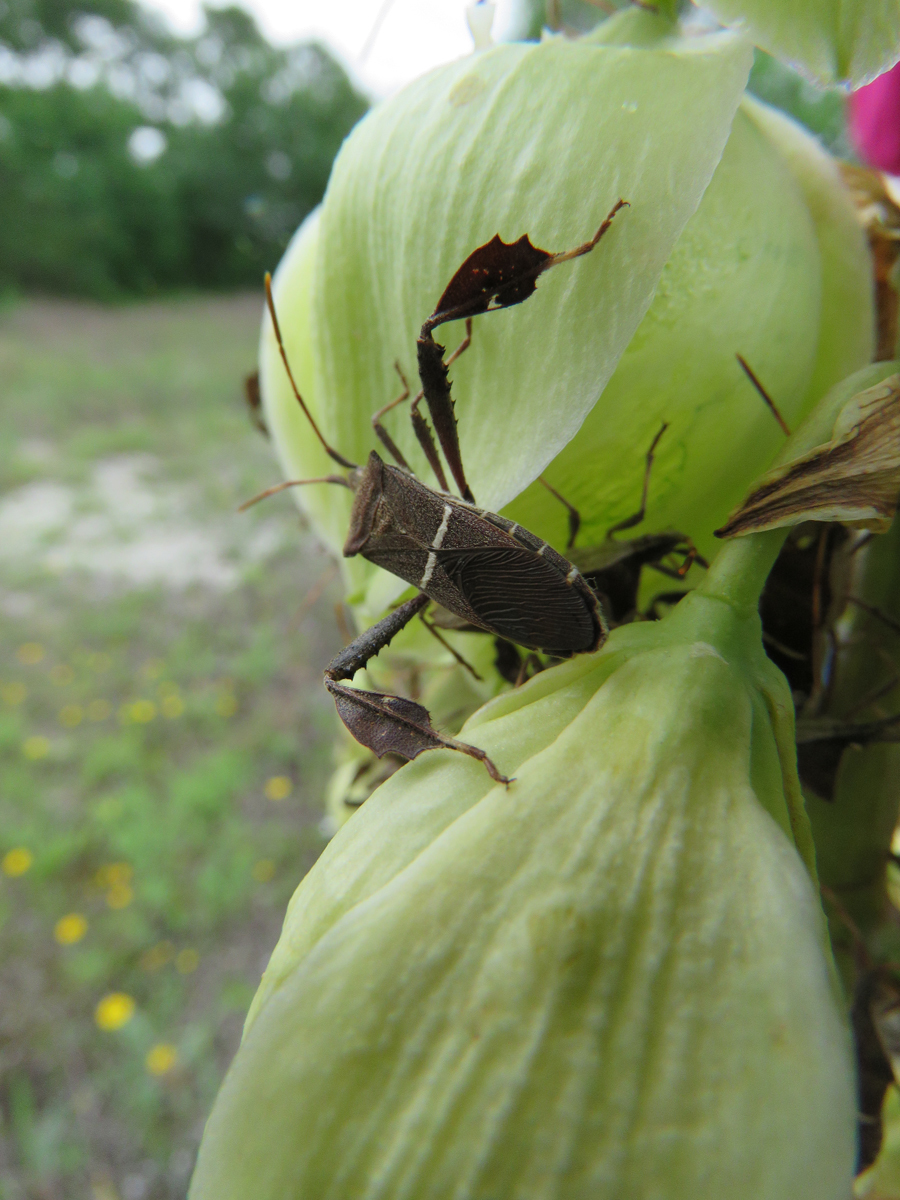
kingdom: Animalia
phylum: Arthropoda
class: Insecta
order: Hemiptera
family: Coreidae
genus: Leptoglossus
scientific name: Leptoglossus phyllopus
